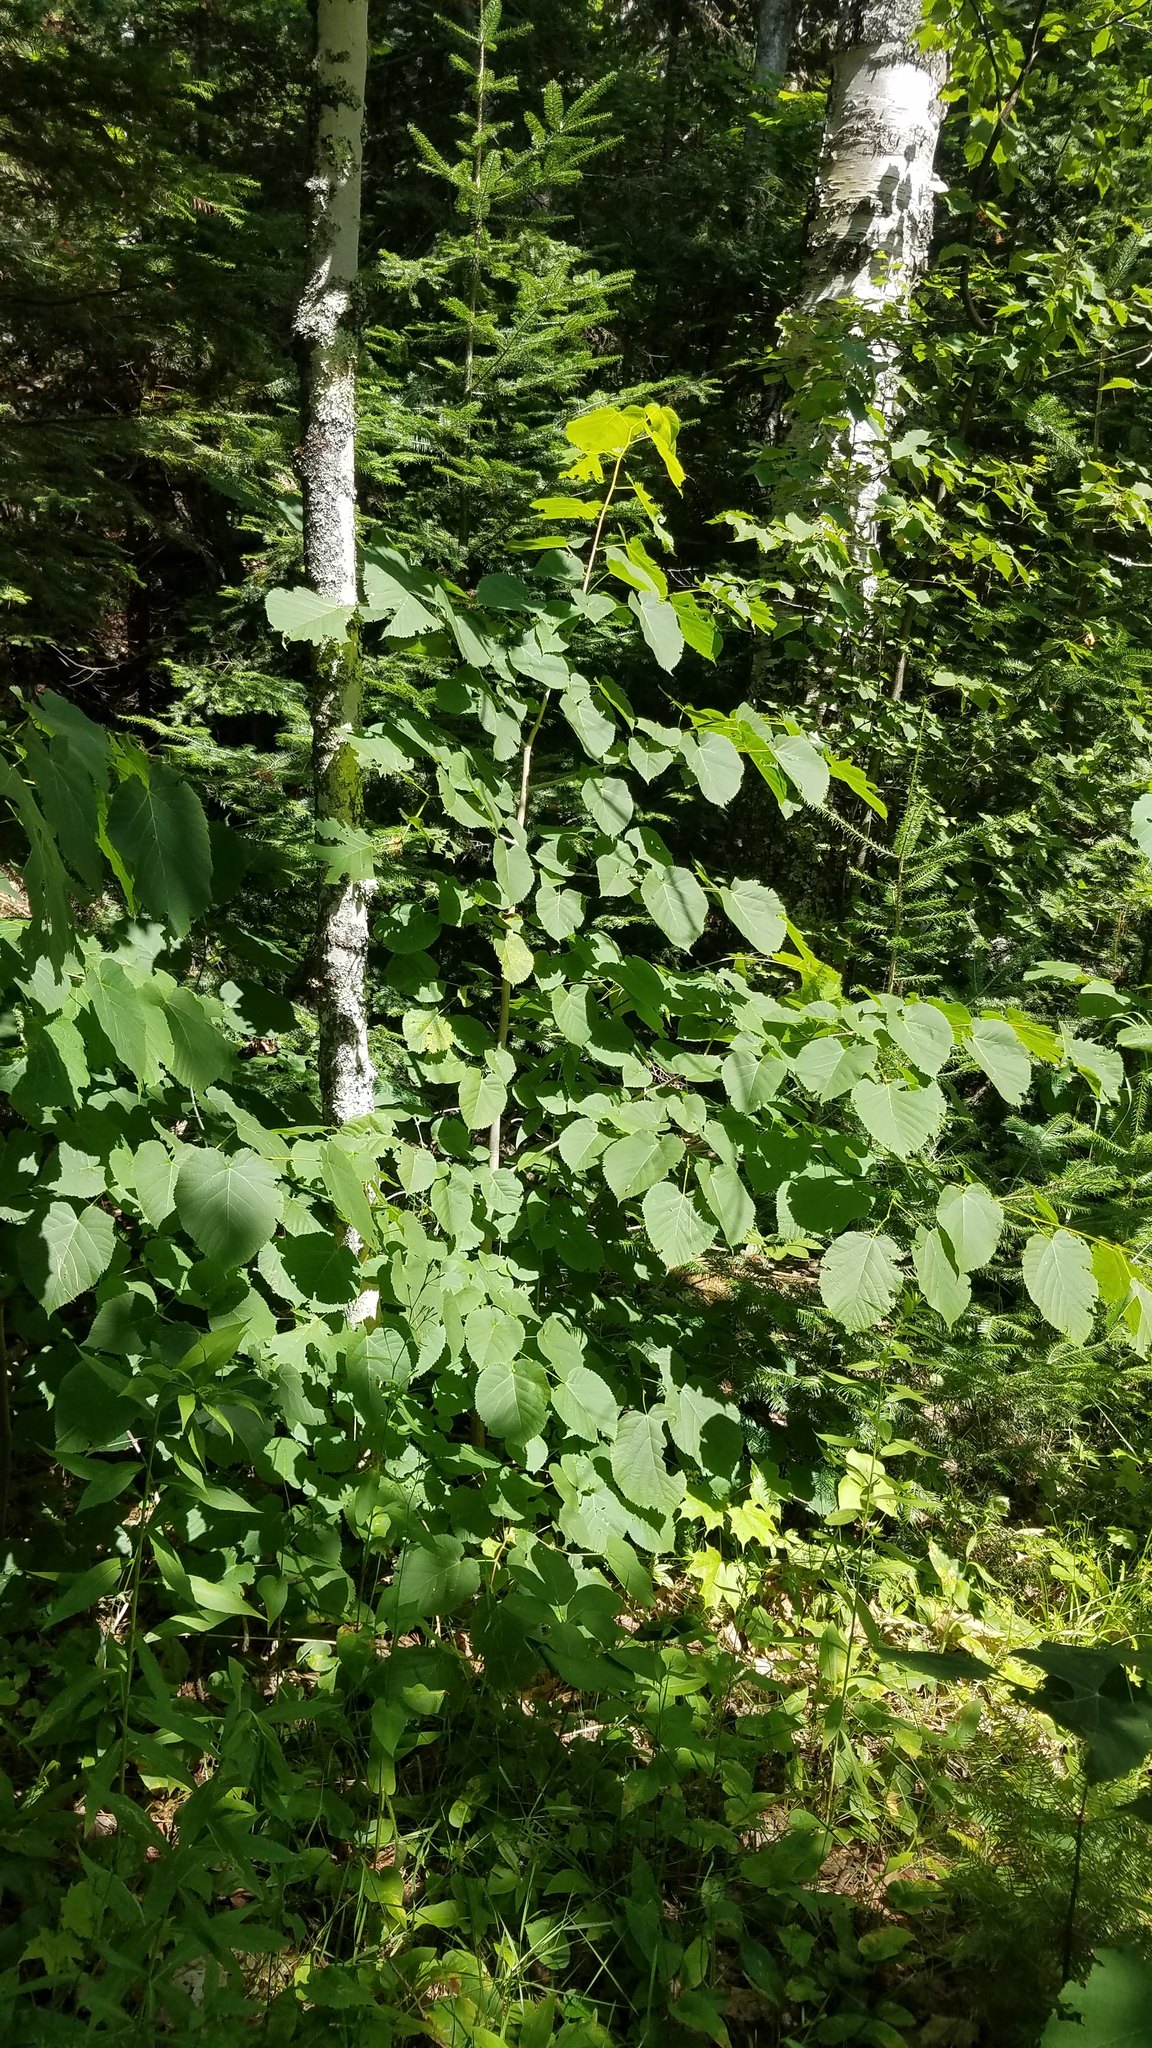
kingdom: Plantae
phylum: Tracheophyta
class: Magnoliopsida
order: Malvales
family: Malvaceae
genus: Tilia
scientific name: Tilia americana
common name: Basswood
